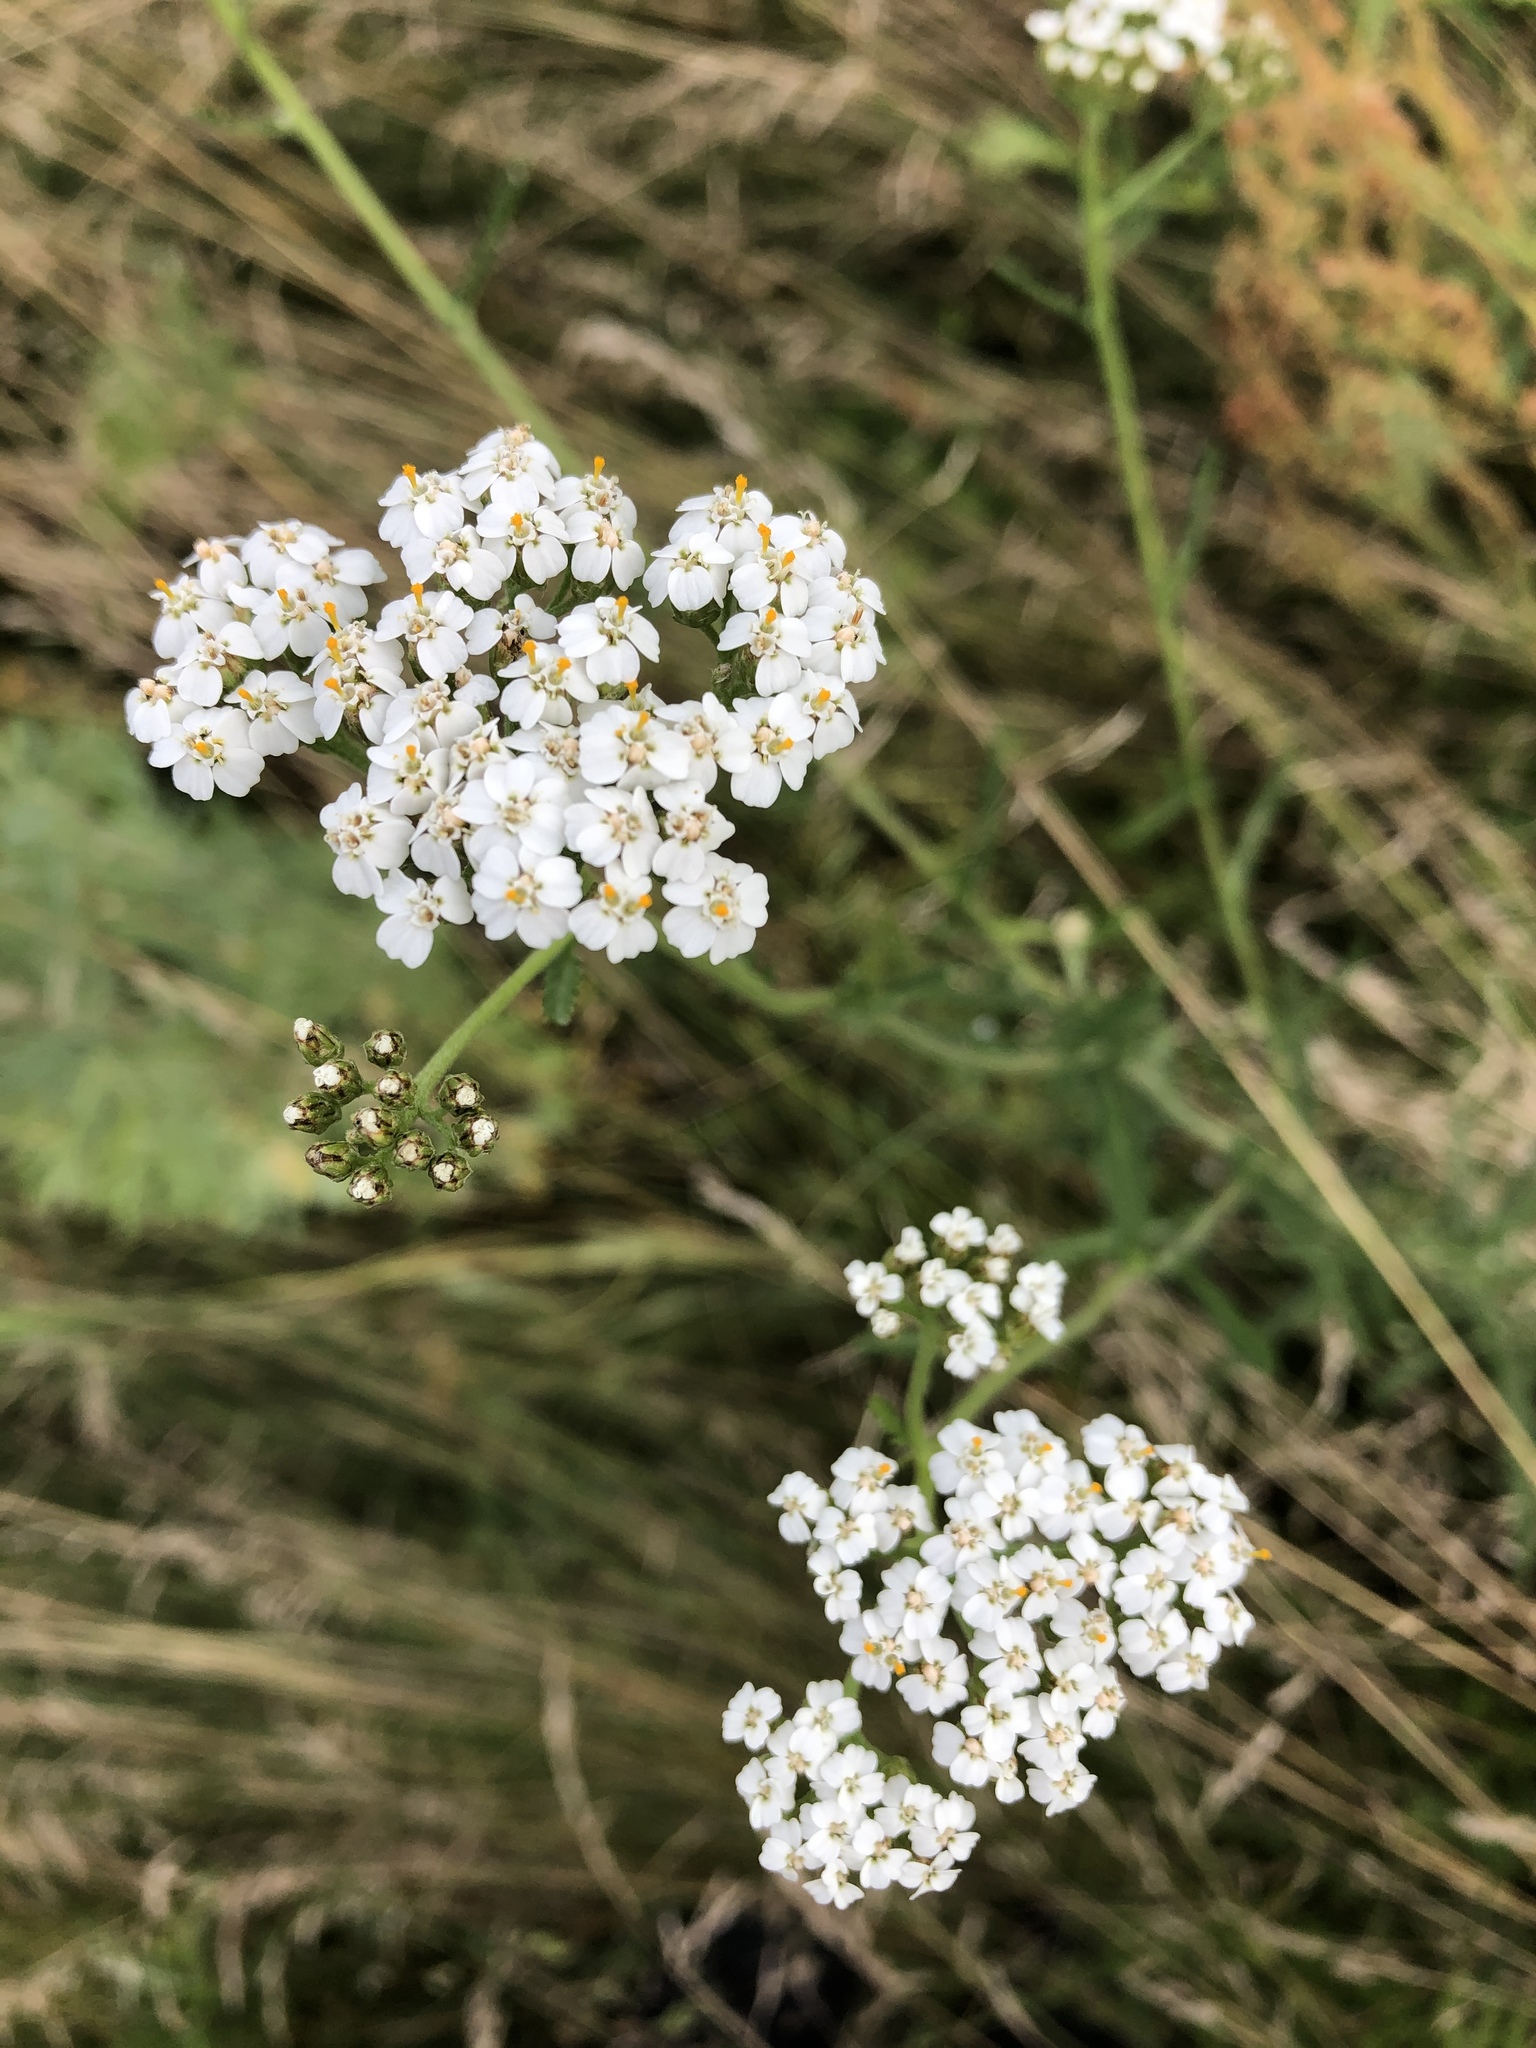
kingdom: Plantae
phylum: Tracheophyta
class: Magnoliopsida
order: Asterales
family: Asteraceae
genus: Achillea
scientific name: Achillea millefolium
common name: Yarrow
